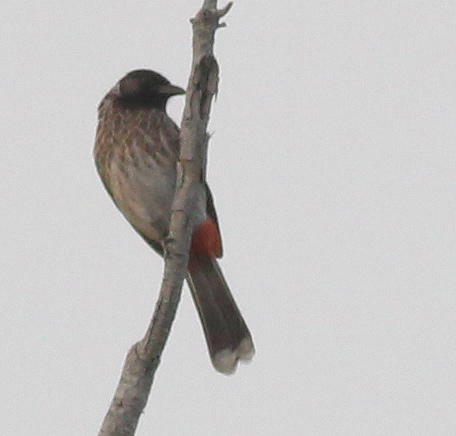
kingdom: Animalia
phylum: Chordata
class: Aves
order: Passeriformes
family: Pycnonotidae
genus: Pycnonotus
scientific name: Pycnonotus cafer
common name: Red-vented bulbul
